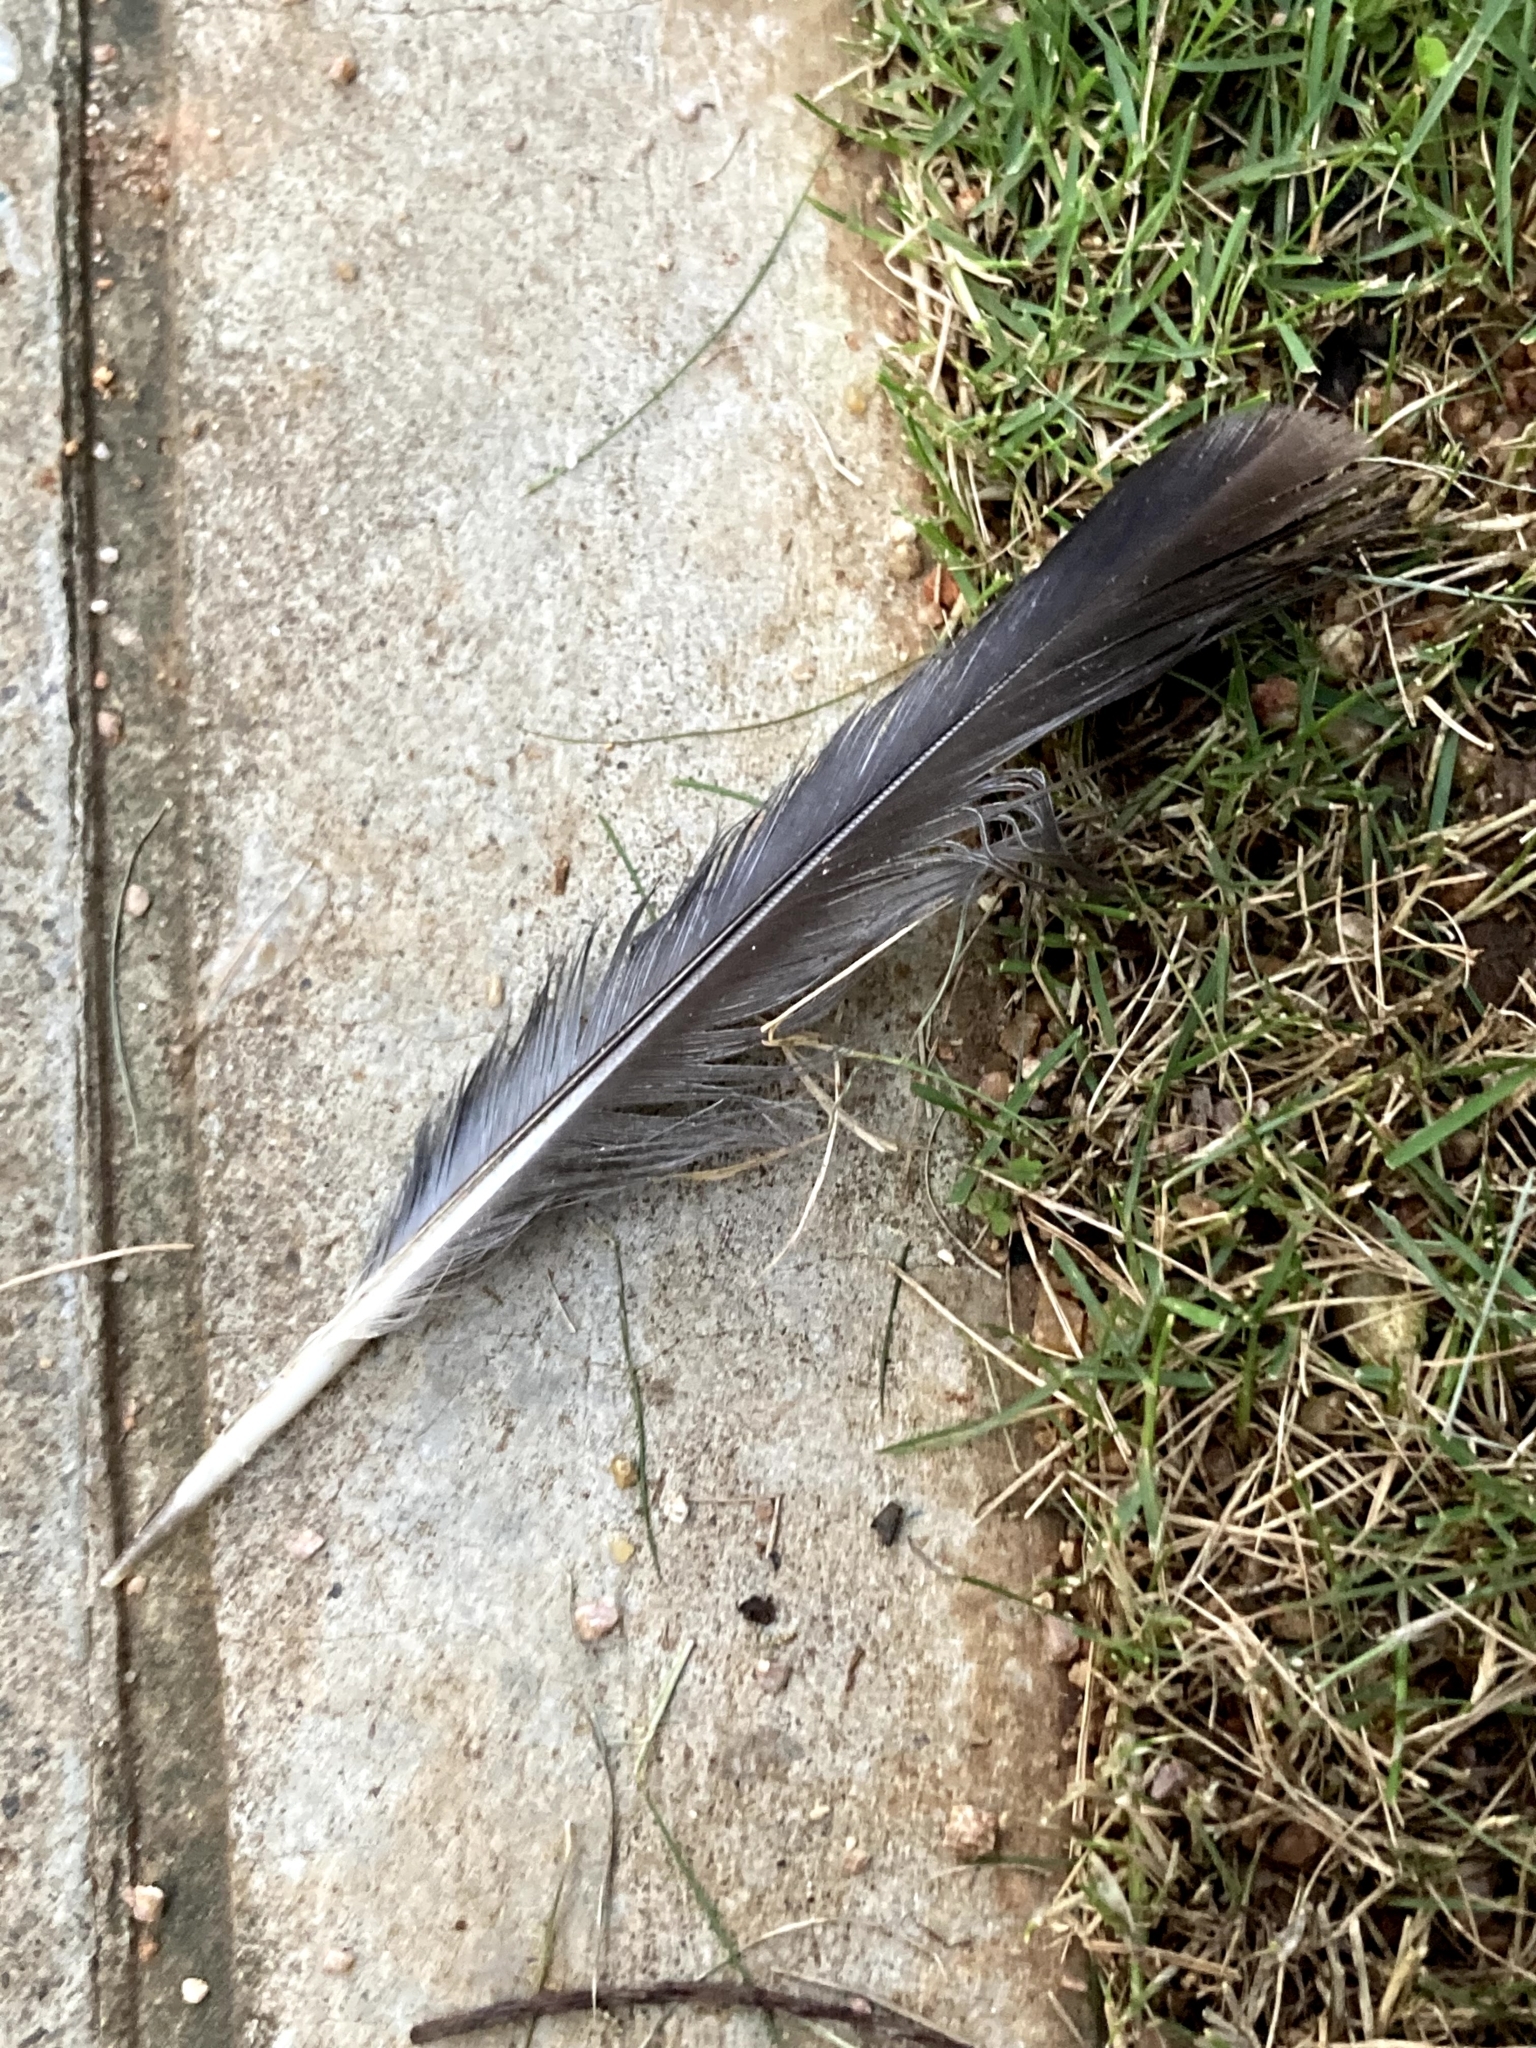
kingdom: Animalia
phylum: Chordata
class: Aves
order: Columbiformes
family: Columbidae
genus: Columba
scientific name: Columba livia
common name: Rock pigeon
